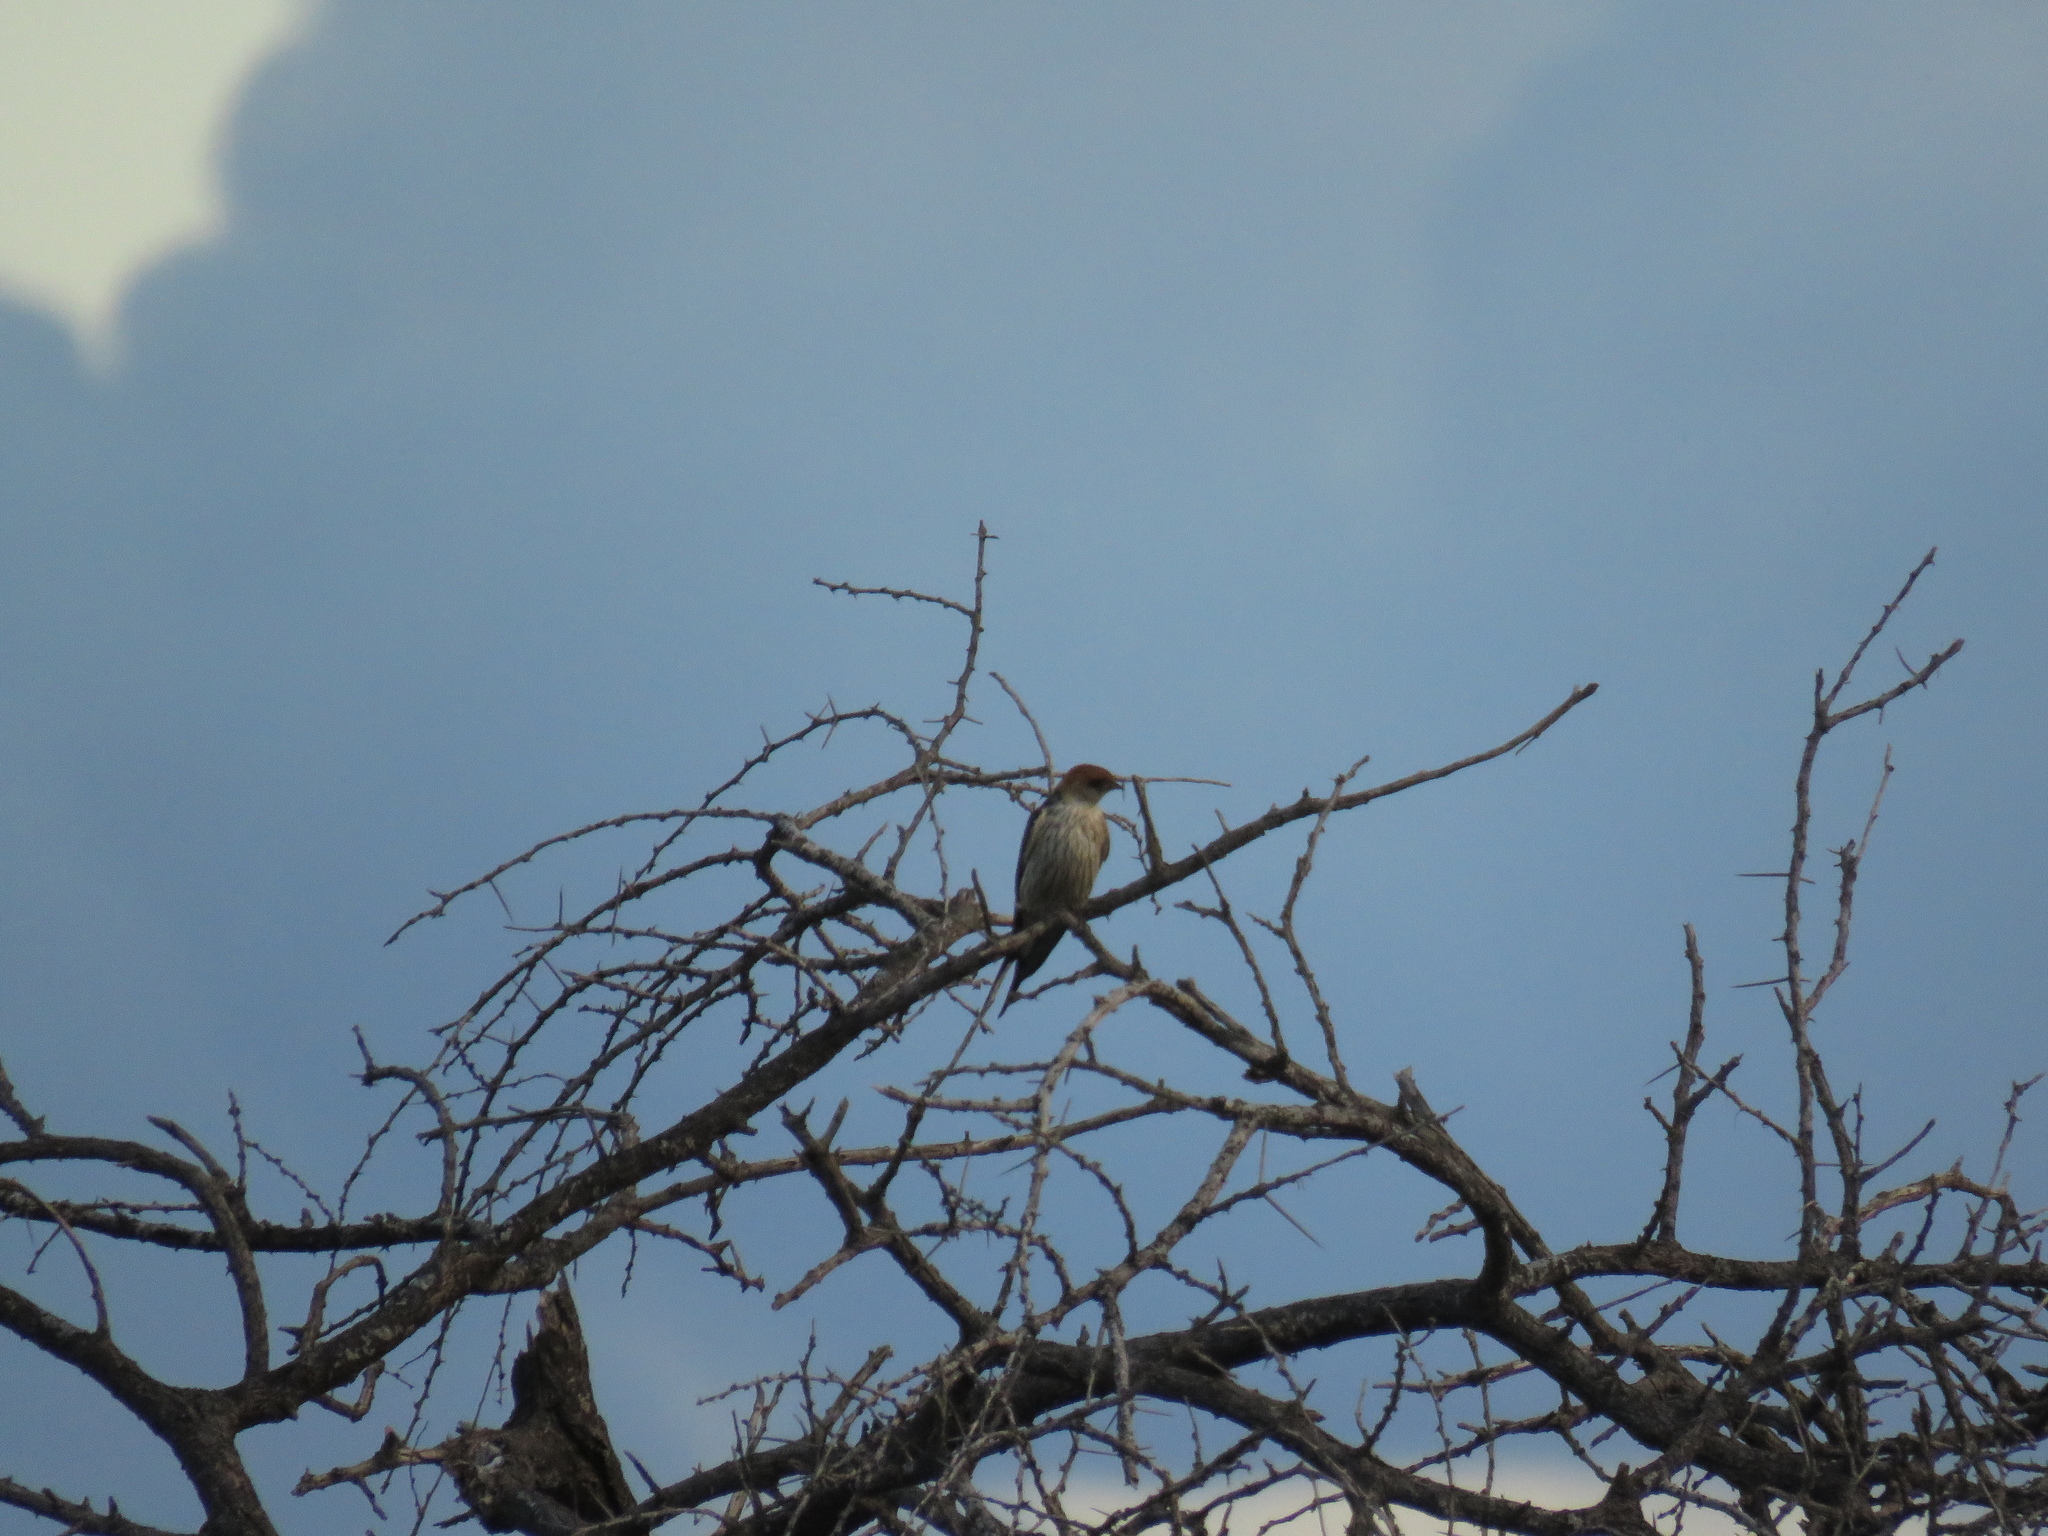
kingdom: Animalia
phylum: Chordata
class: Aves
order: Passeriformes
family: Hirundinidae
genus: Cecropis
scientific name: Cecropis cucullata
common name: Greater striped-swallow
